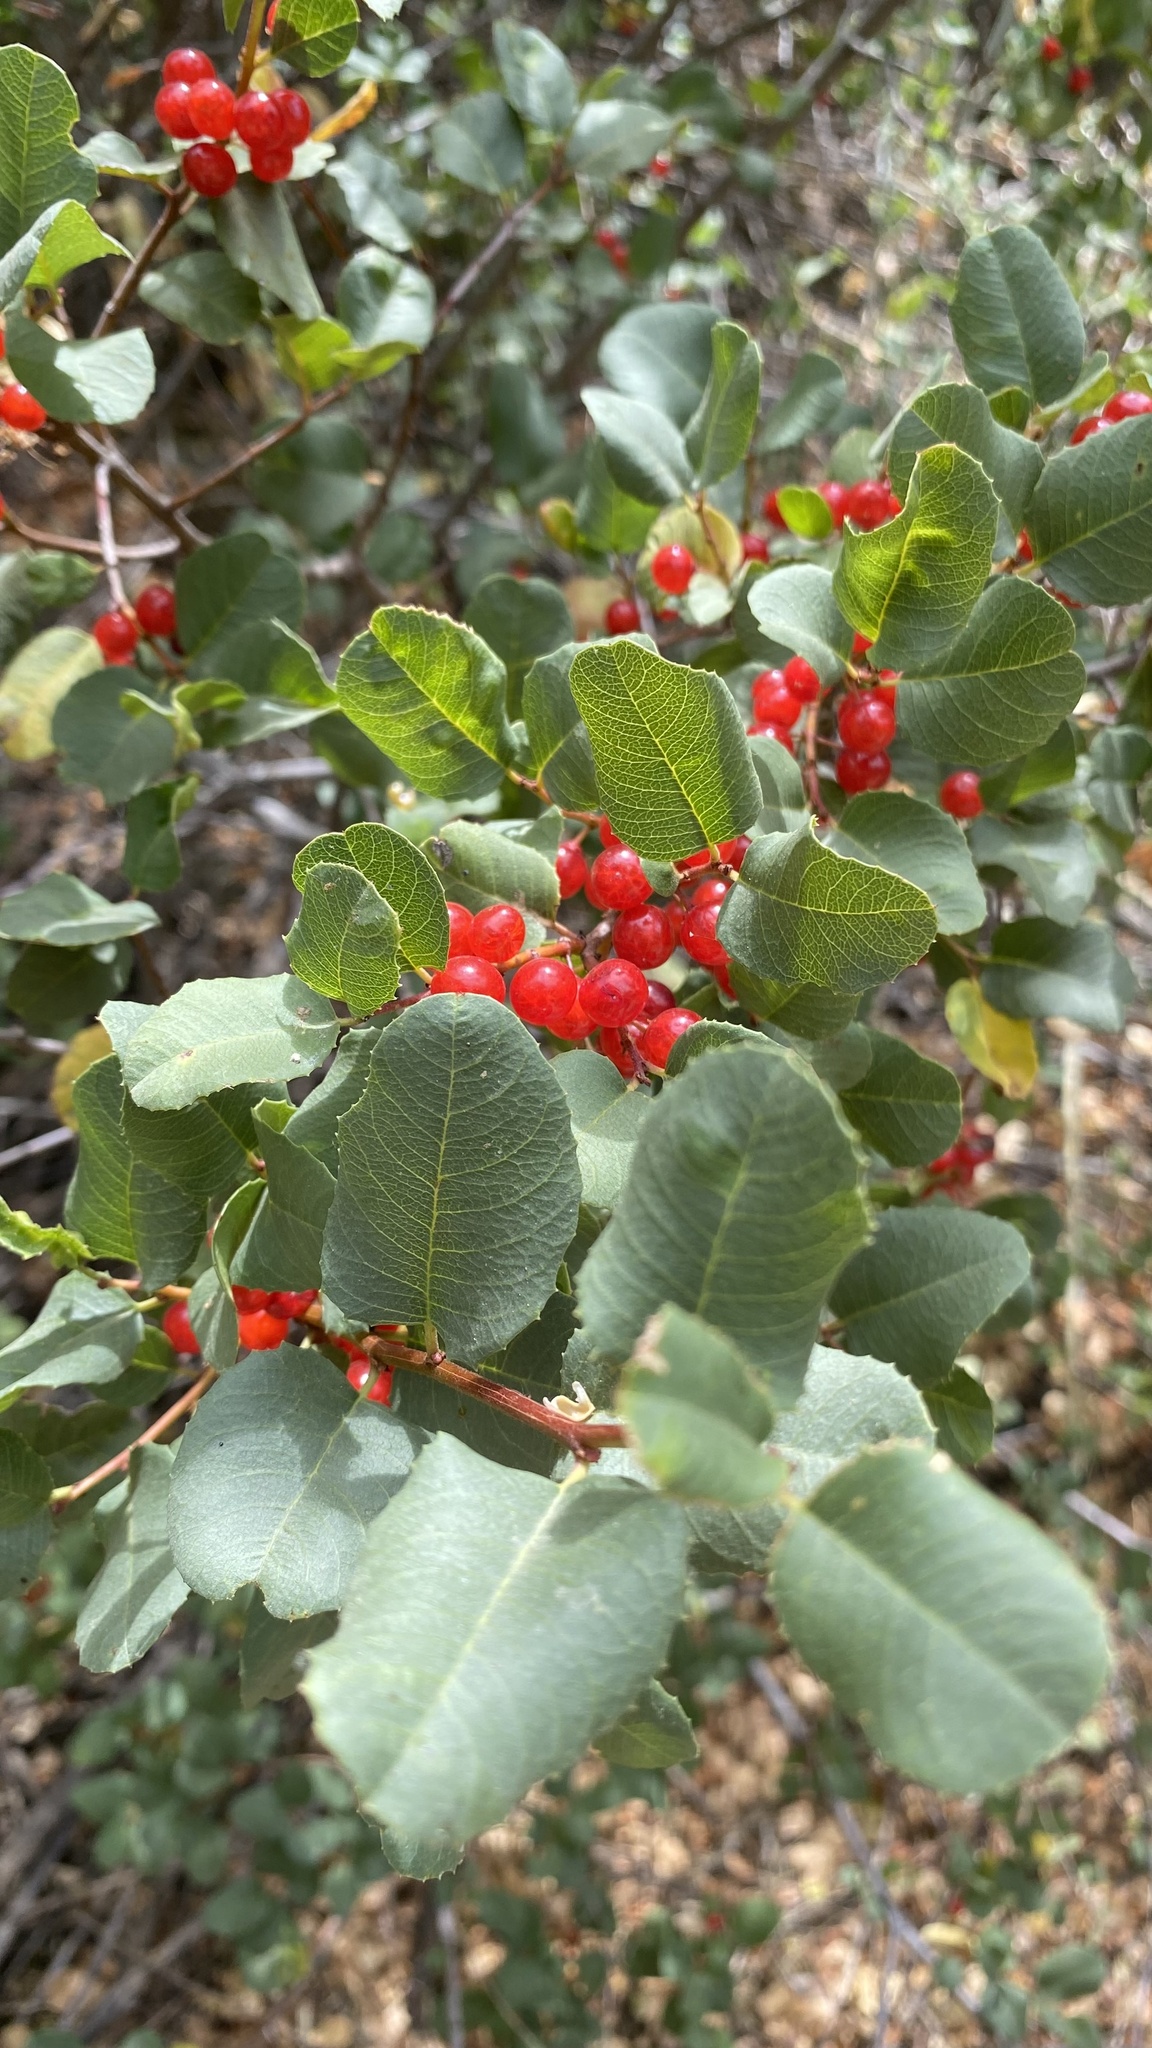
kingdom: Plantae
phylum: Tracheophyta
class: Magnoliopsida
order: Rosales
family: Rhamnaceae
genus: Endotropis
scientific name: Endotropis crocea
